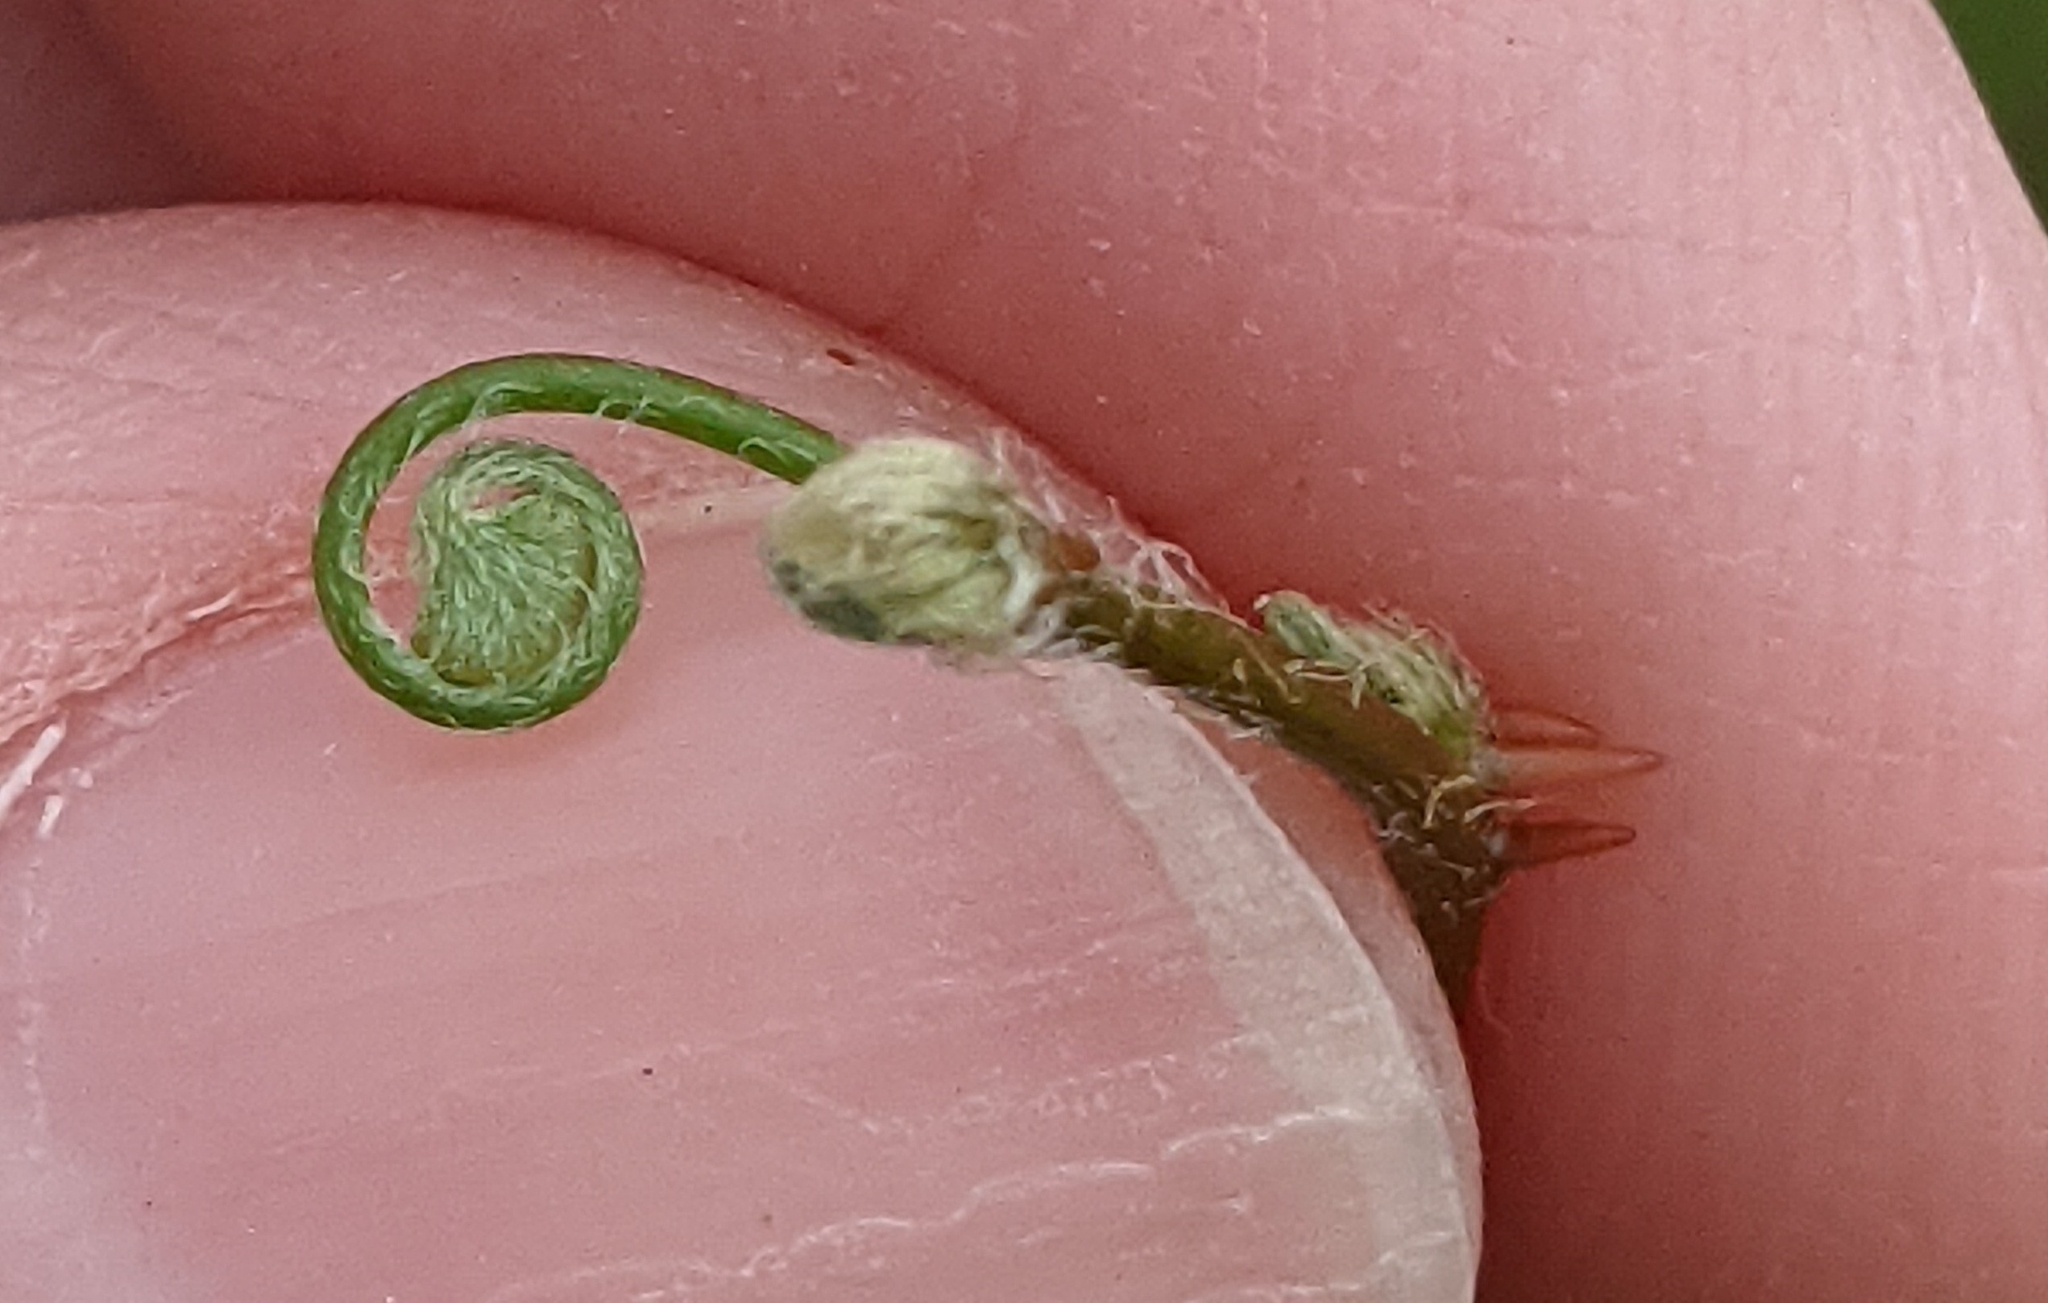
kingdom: Plantae
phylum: Tracheophyta
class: Polypodiopsida
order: Salviniales
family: Marsileaceae
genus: Marsilea
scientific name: Marsilea vestita
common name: Hooked-pepperwort
